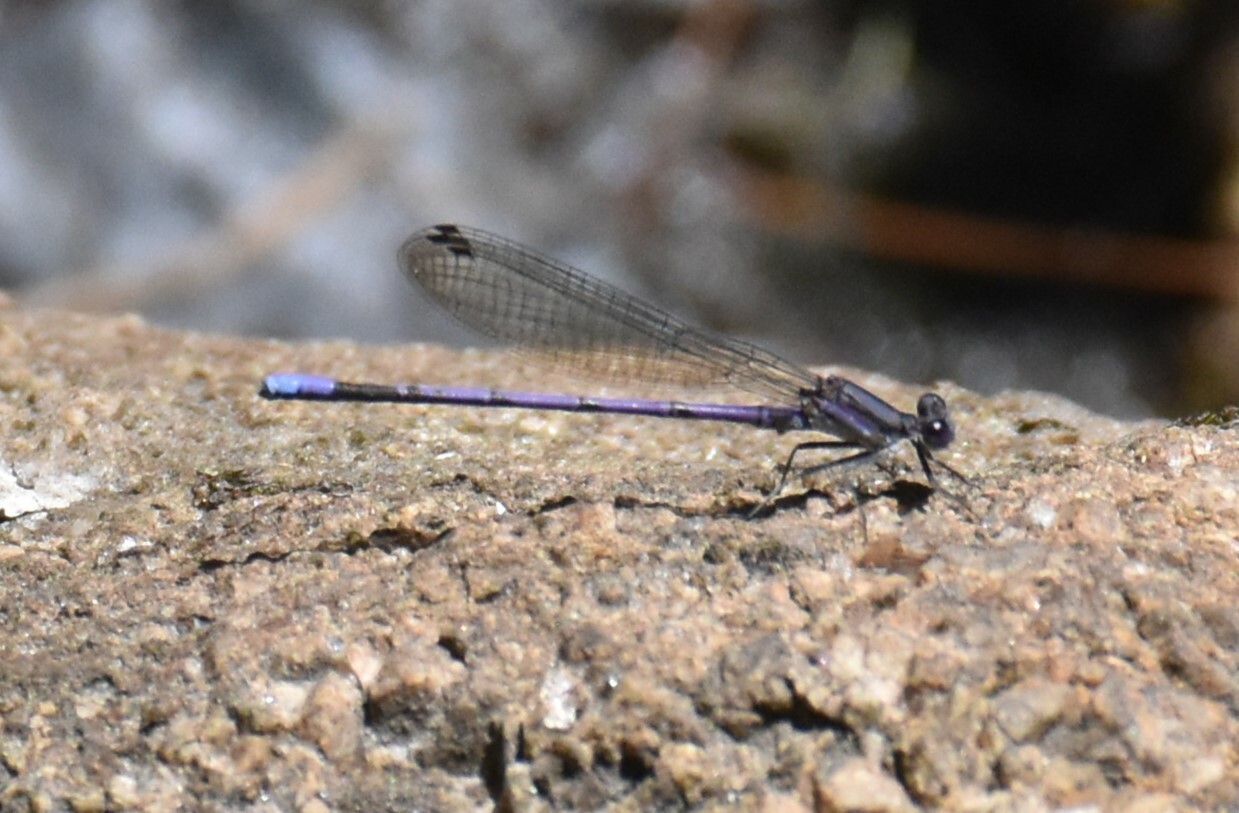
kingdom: Animalia
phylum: Arthropoda
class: Insecta
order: Odonata
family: Coenagrionidae
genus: Argia
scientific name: Argia fumipennis
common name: Variable dancer
